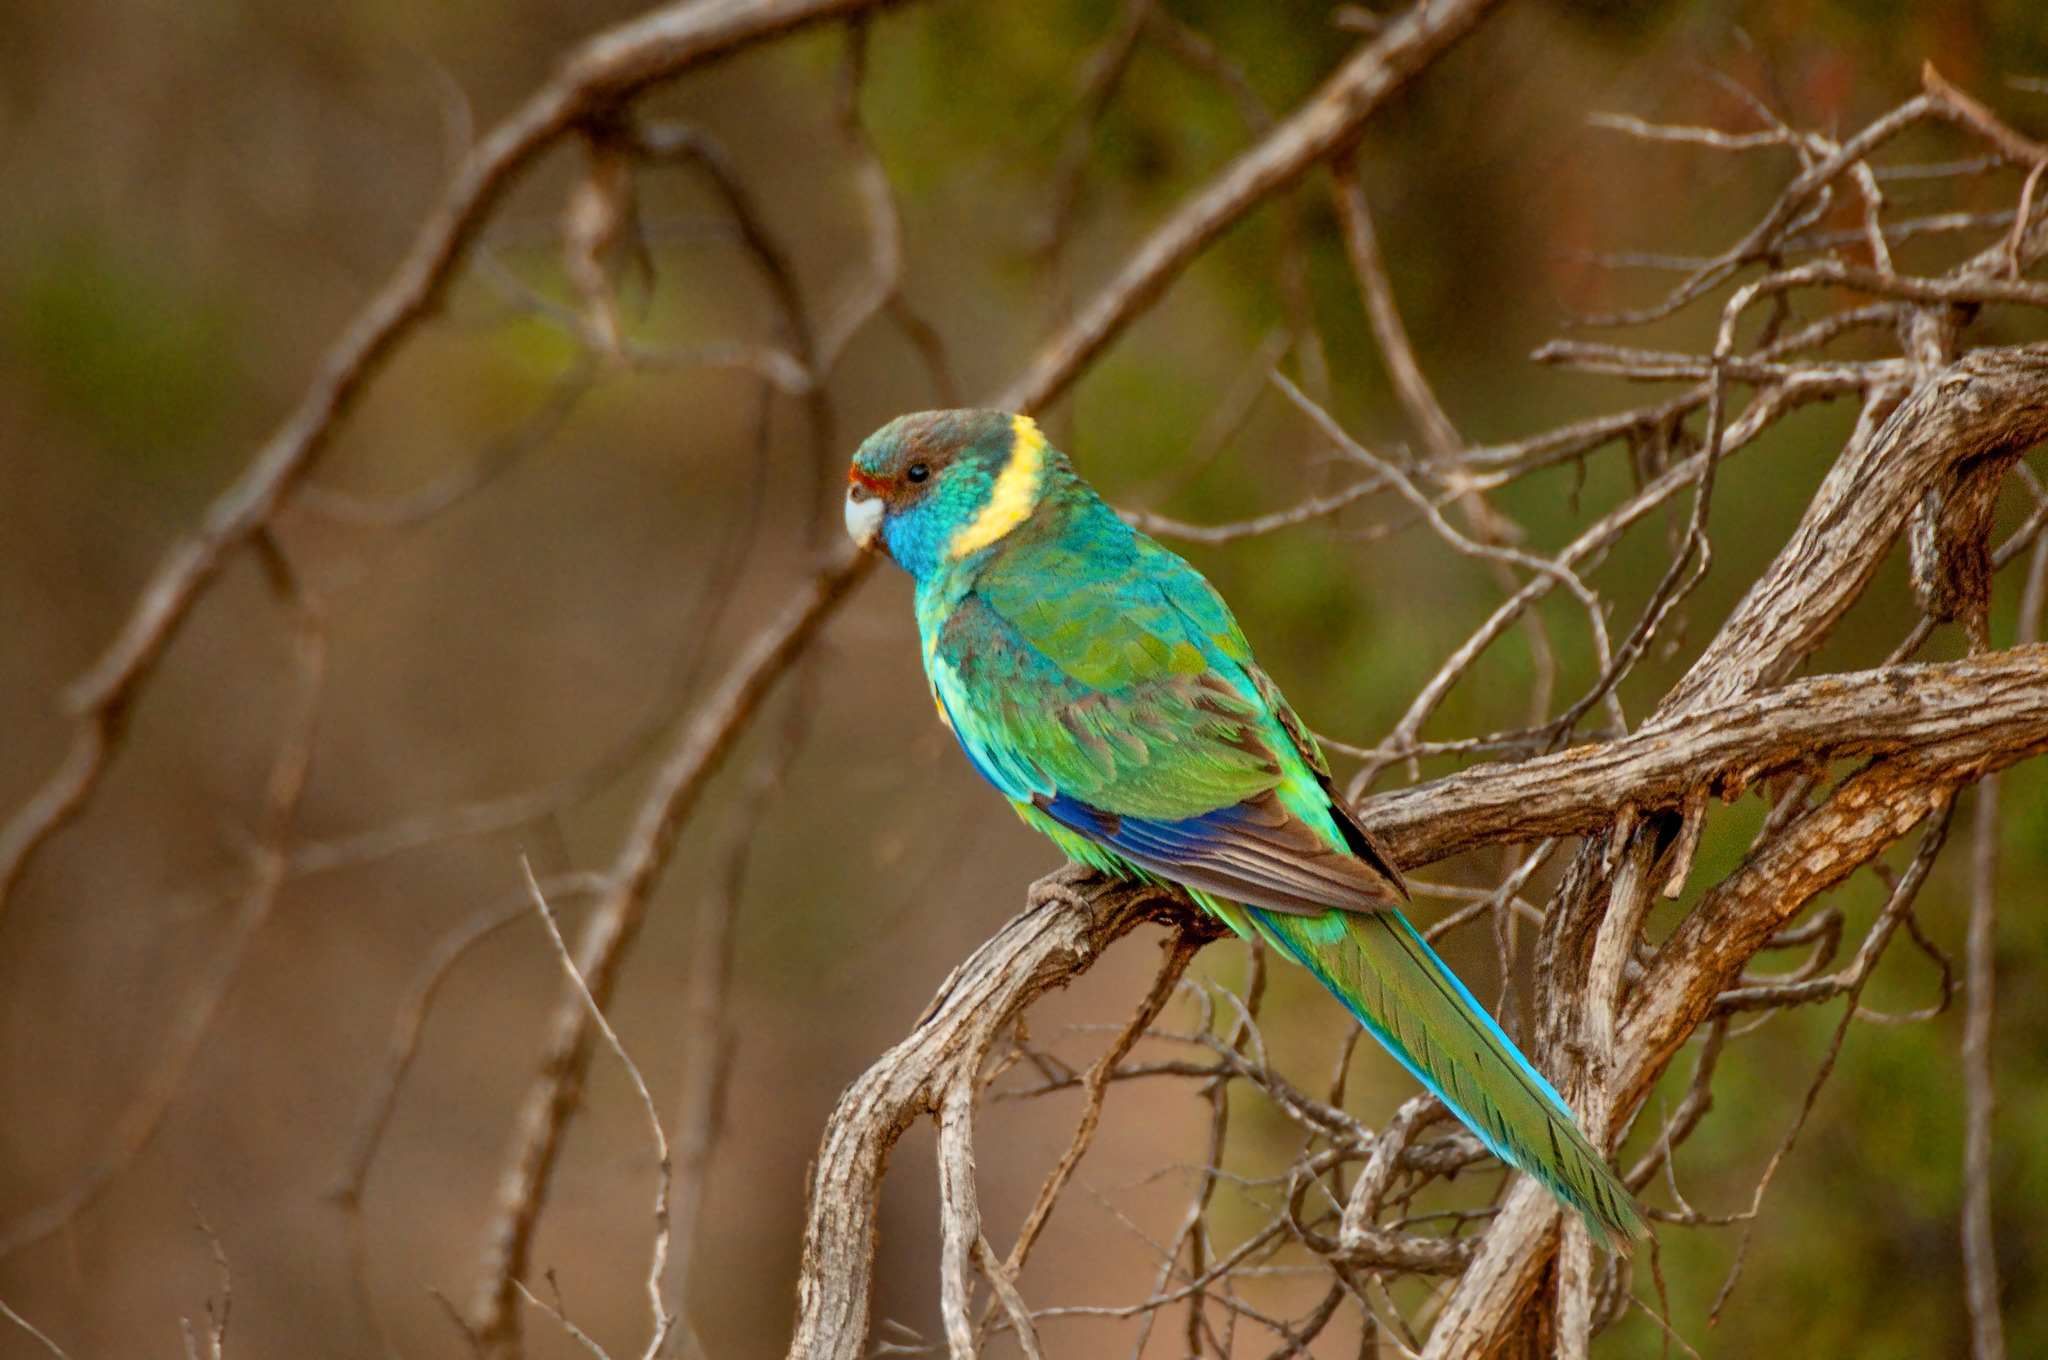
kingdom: Animalia
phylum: Chordata
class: Aves
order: Psittaciformes
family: Psittacidae
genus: Barnardius
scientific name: Barnardius zonarius
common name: Australian ringneck
